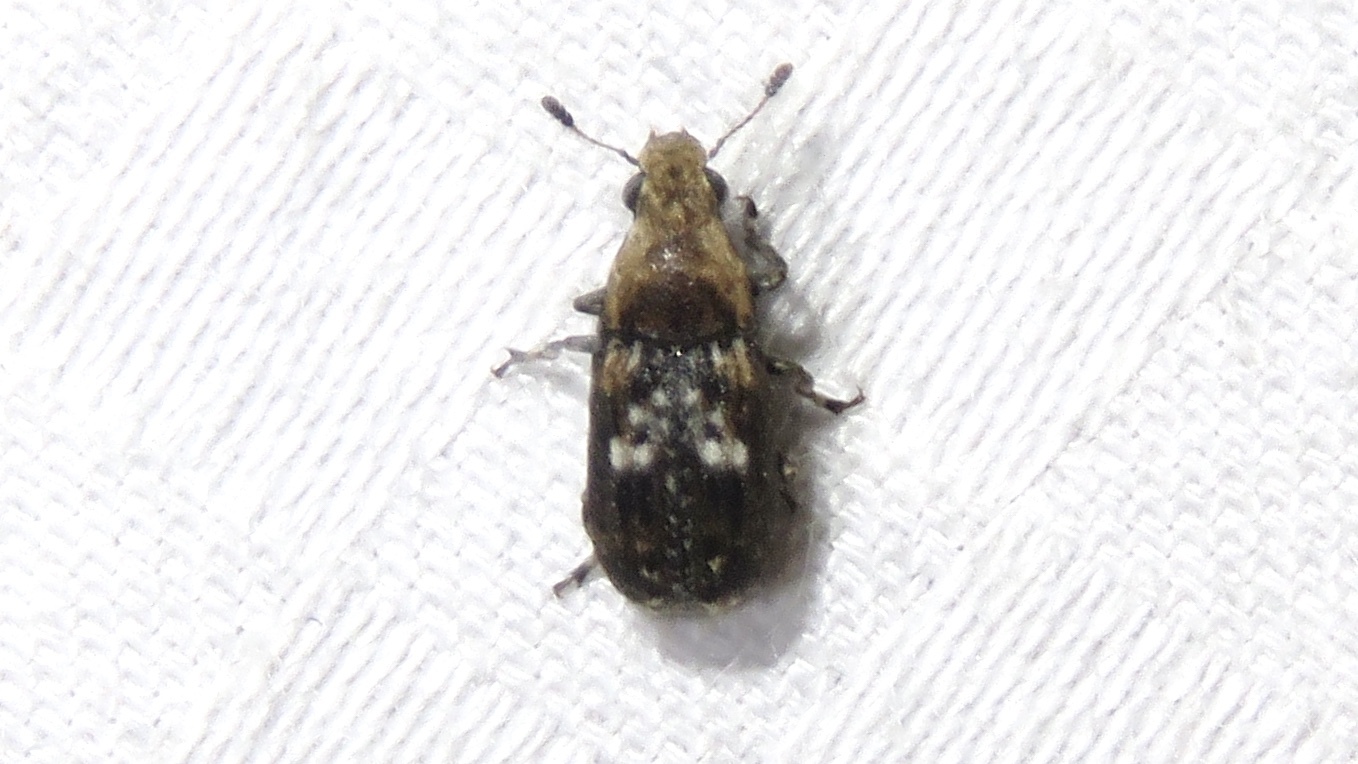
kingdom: Animalia
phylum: Arthropoda
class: Insecta
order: Coleoptera
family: Anthribidae
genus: Euparius
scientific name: Euparius paganus
